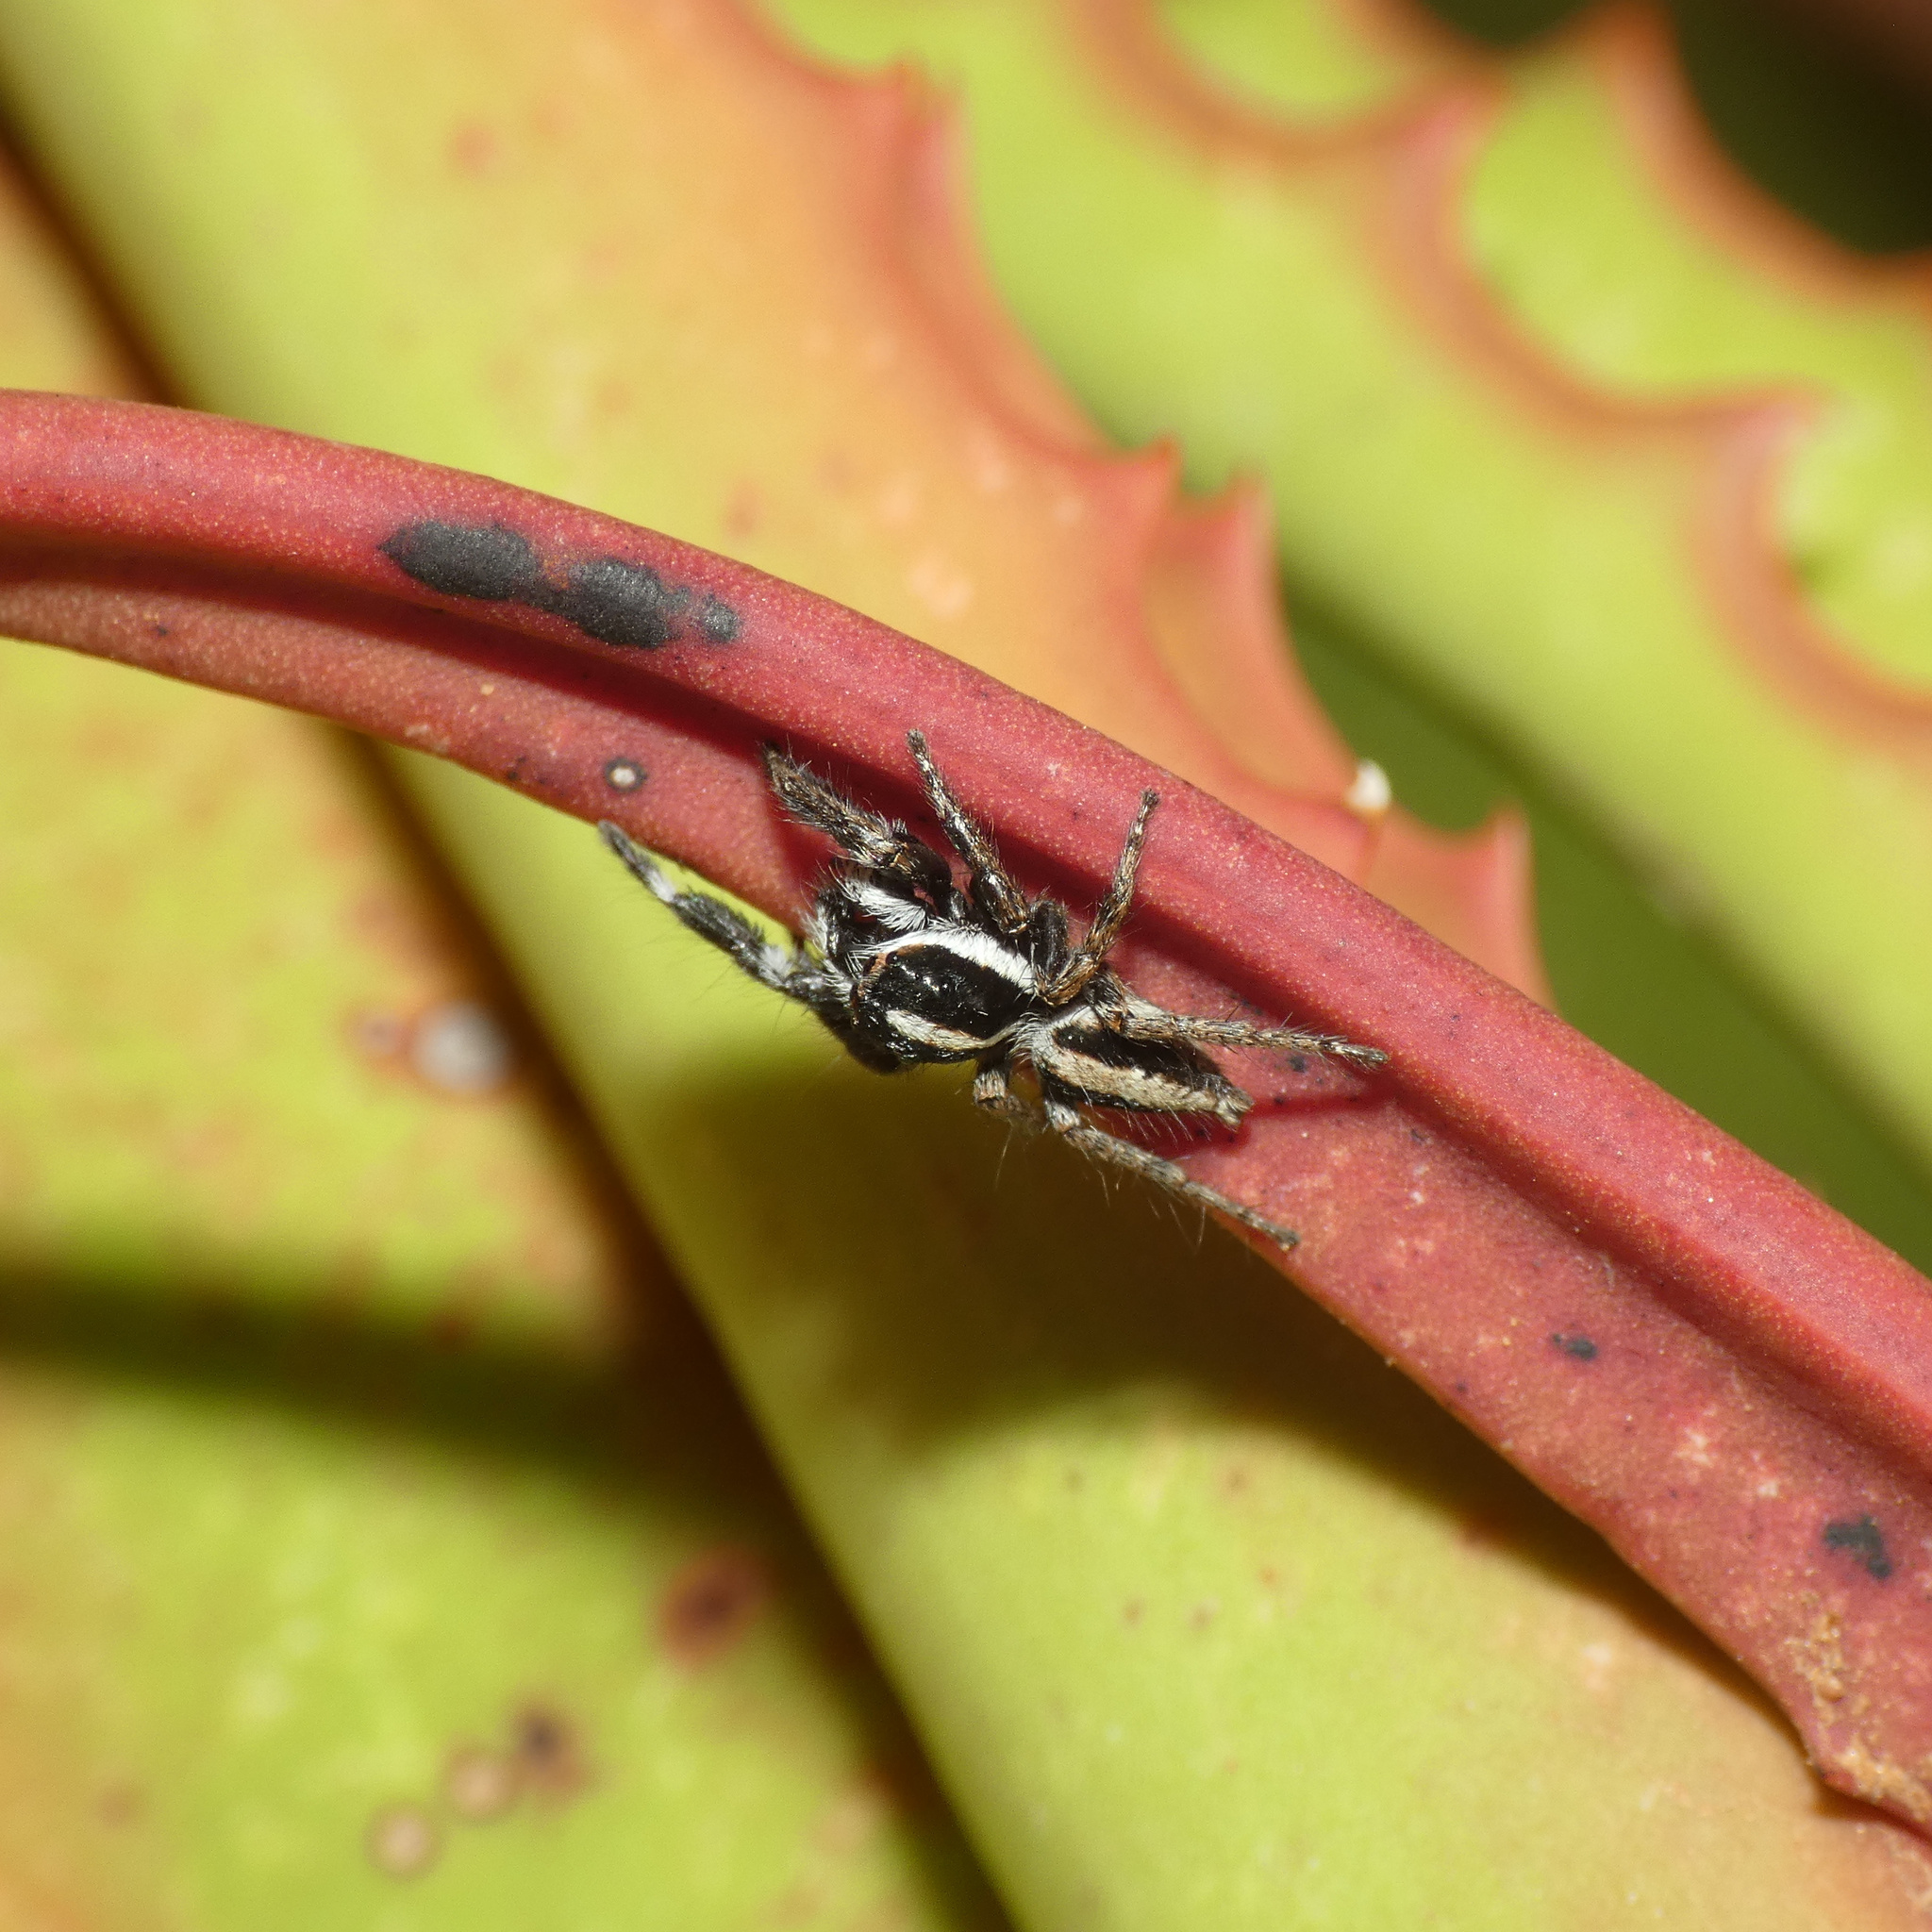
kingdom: Animalia
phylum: Arthropoda
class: Arachnida
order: Araneae
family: Salticidae
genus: Pignus
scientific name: Pignus simoni
